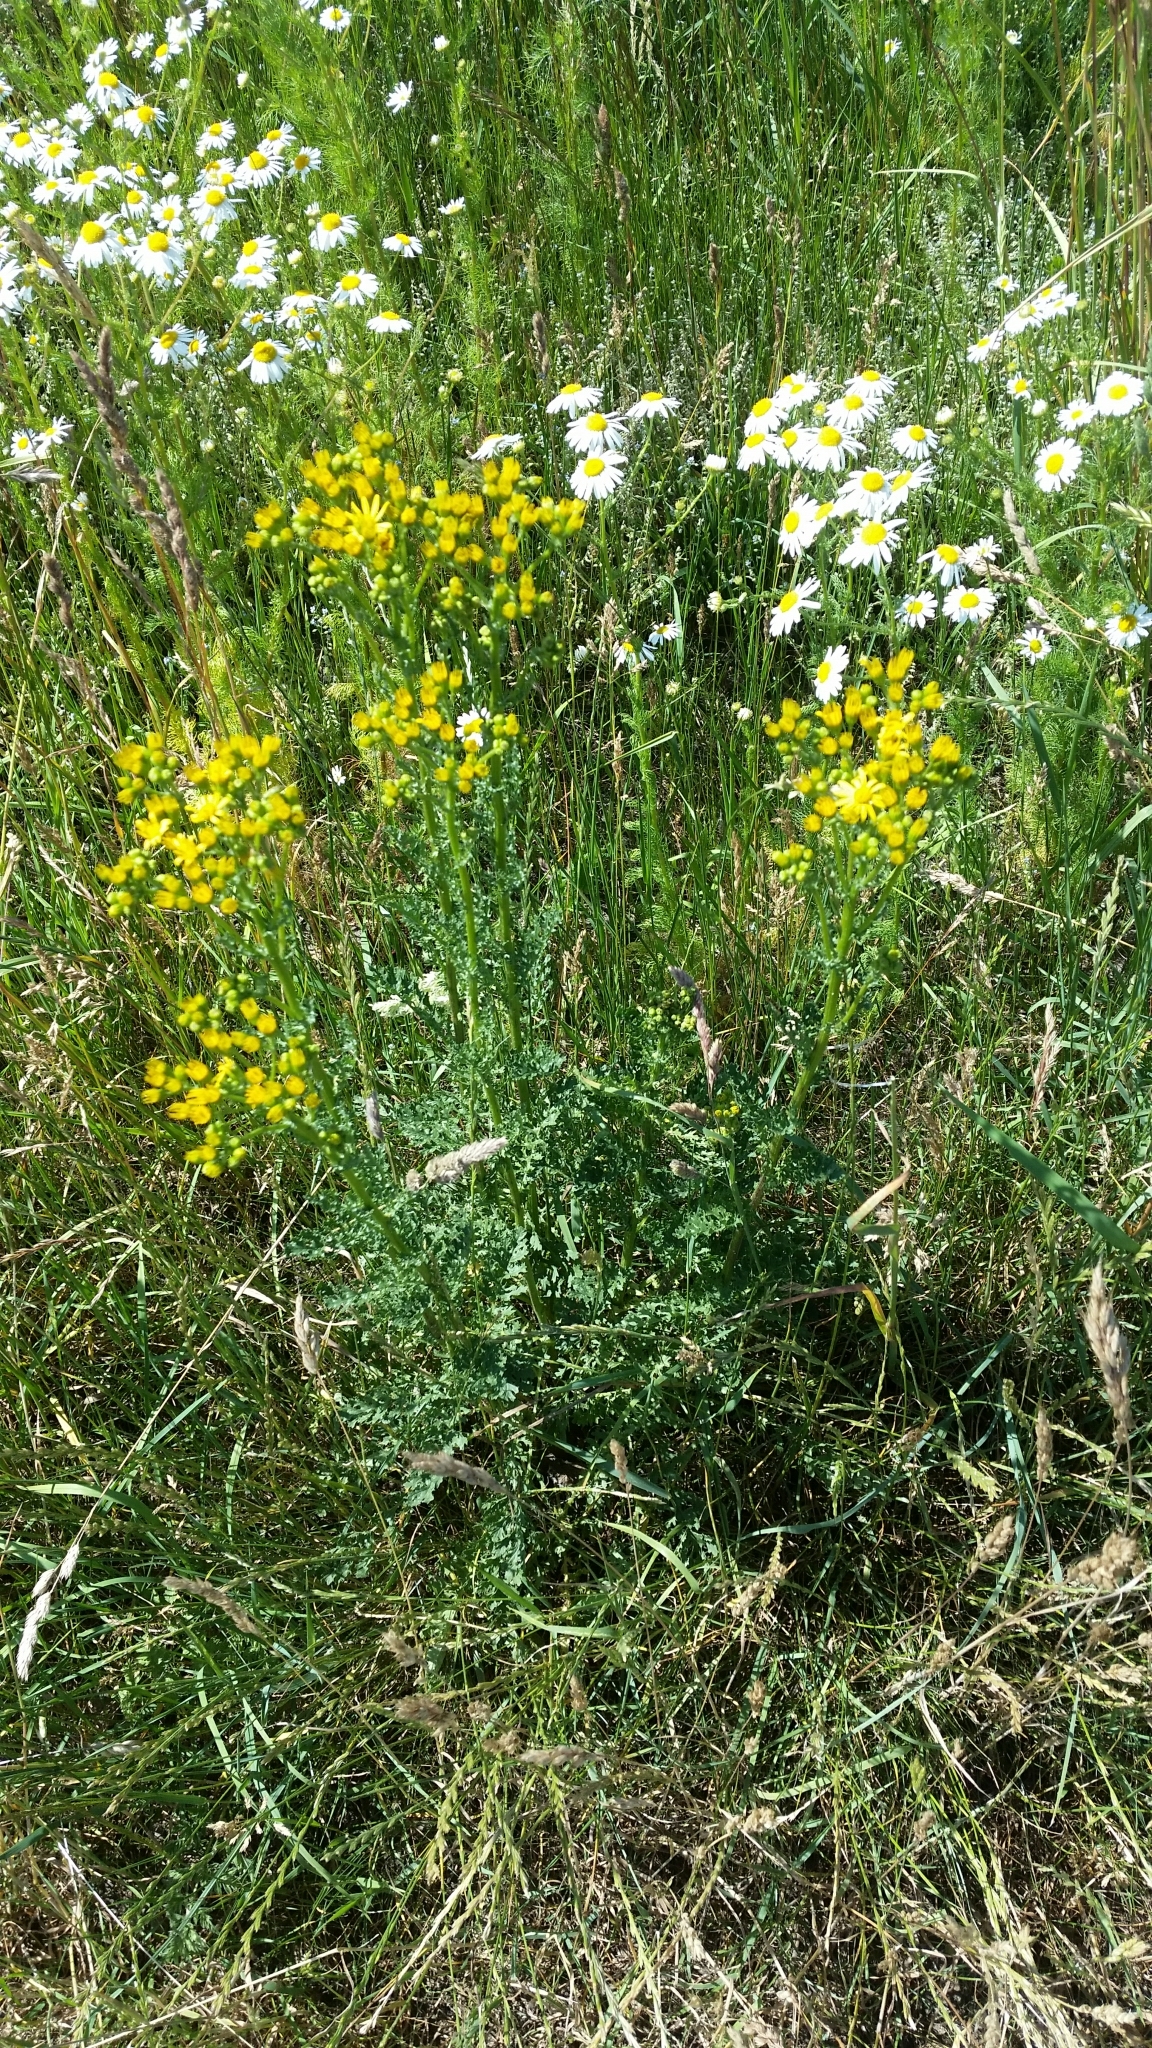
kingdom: Plantae
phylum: Tracheophyta
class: Magnoliopsida
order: Asterales
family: Asteraceae
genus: Jacobaea
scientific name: Jacobaea vulgaris
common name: Stinking willie
